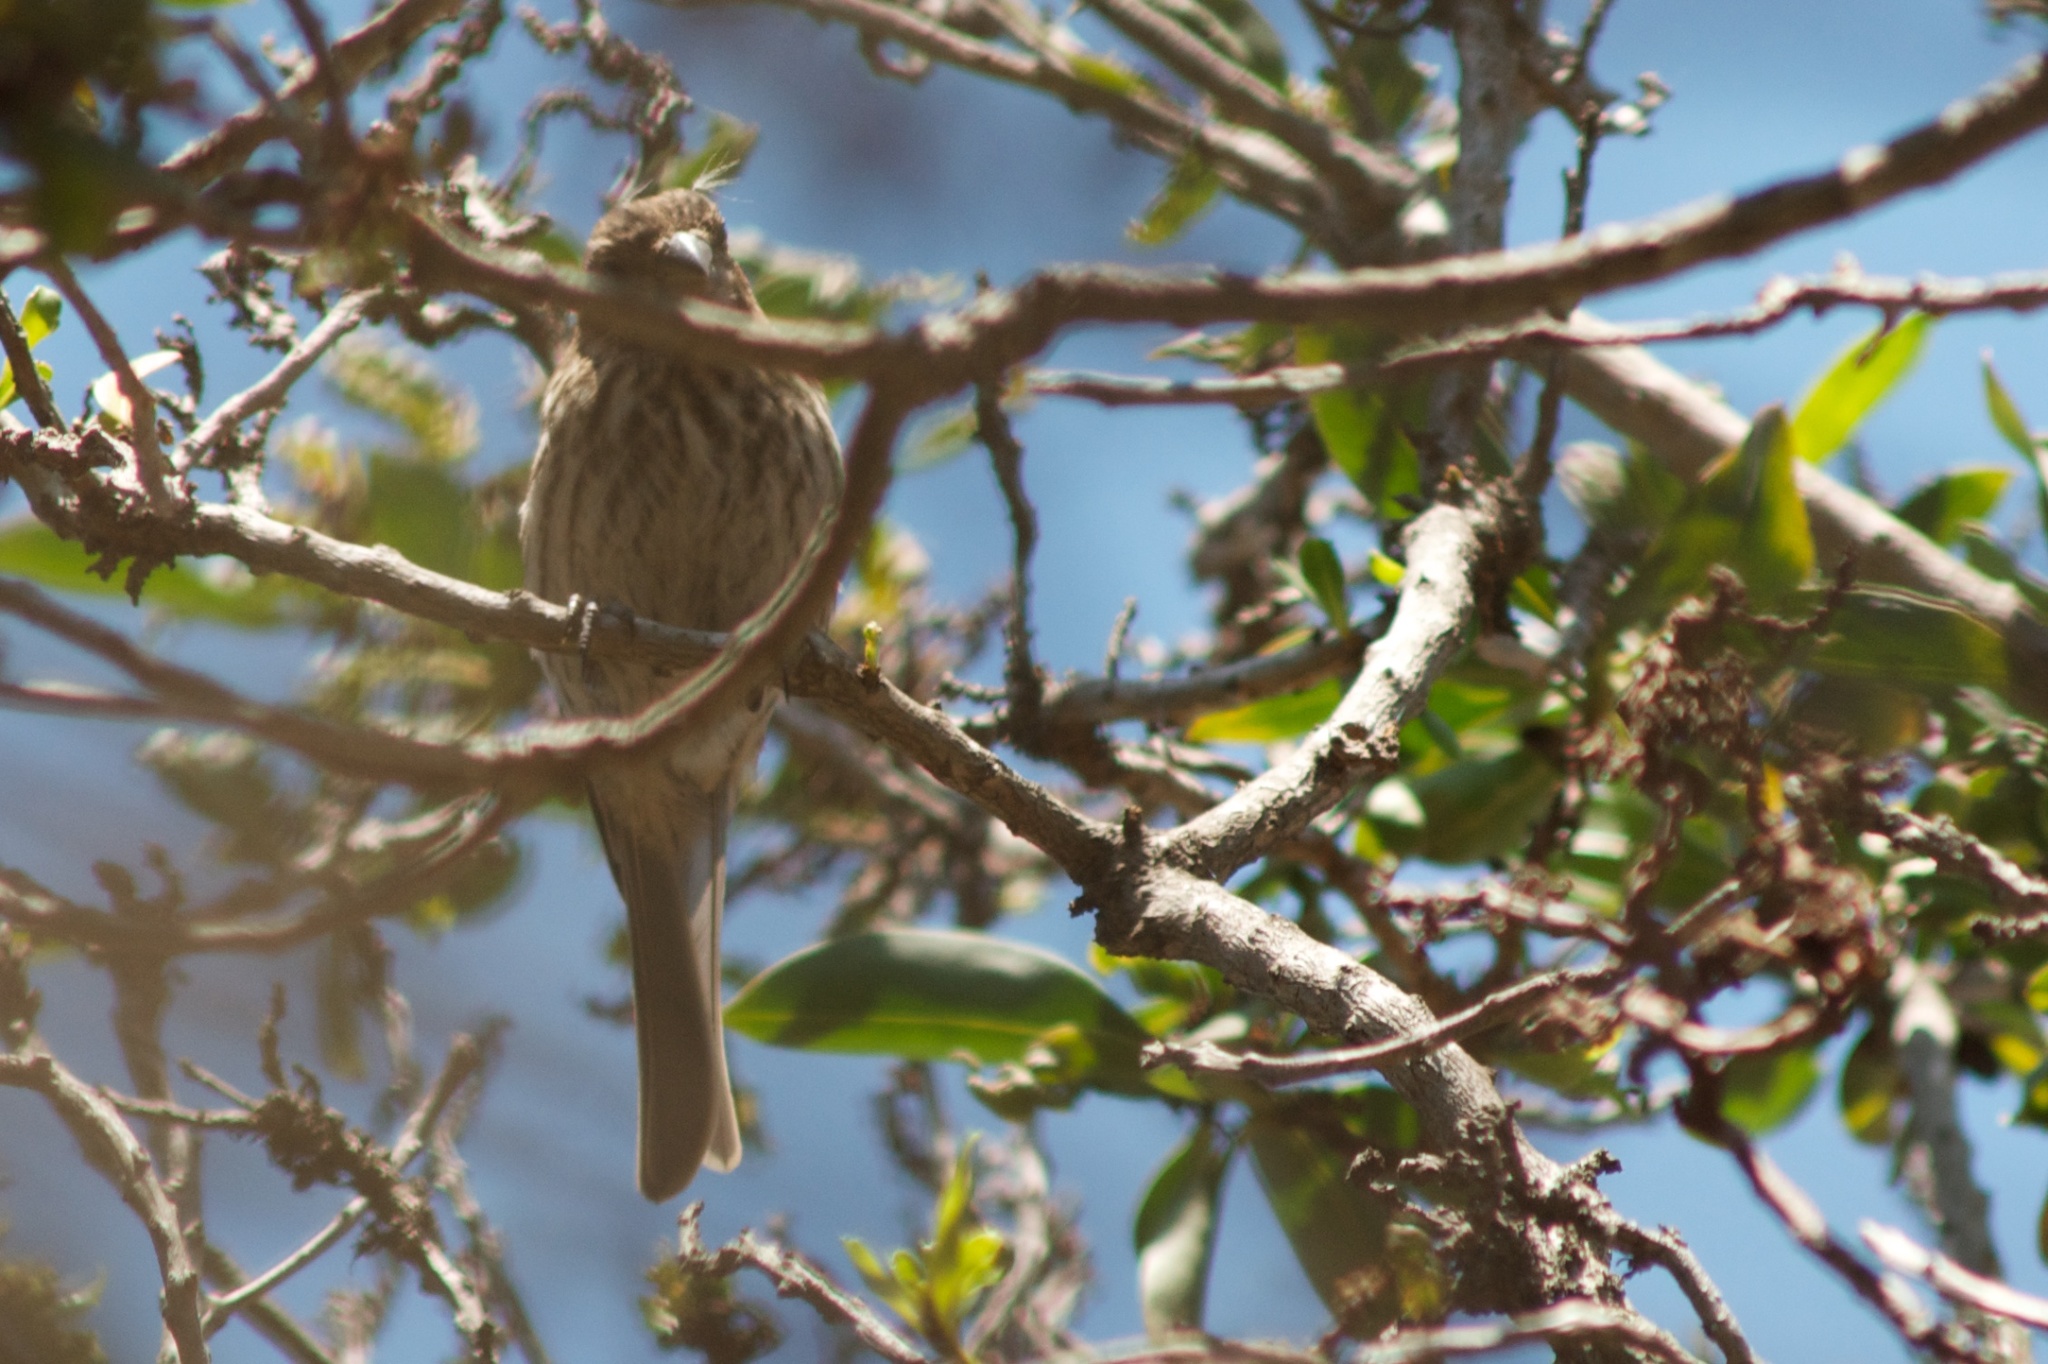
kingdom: Animalia
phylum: Chordata
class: Aves
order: Passeriformes
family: Fringillidae
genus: Haemorhous
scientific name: Haemorhous mexicanus
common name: House finch
